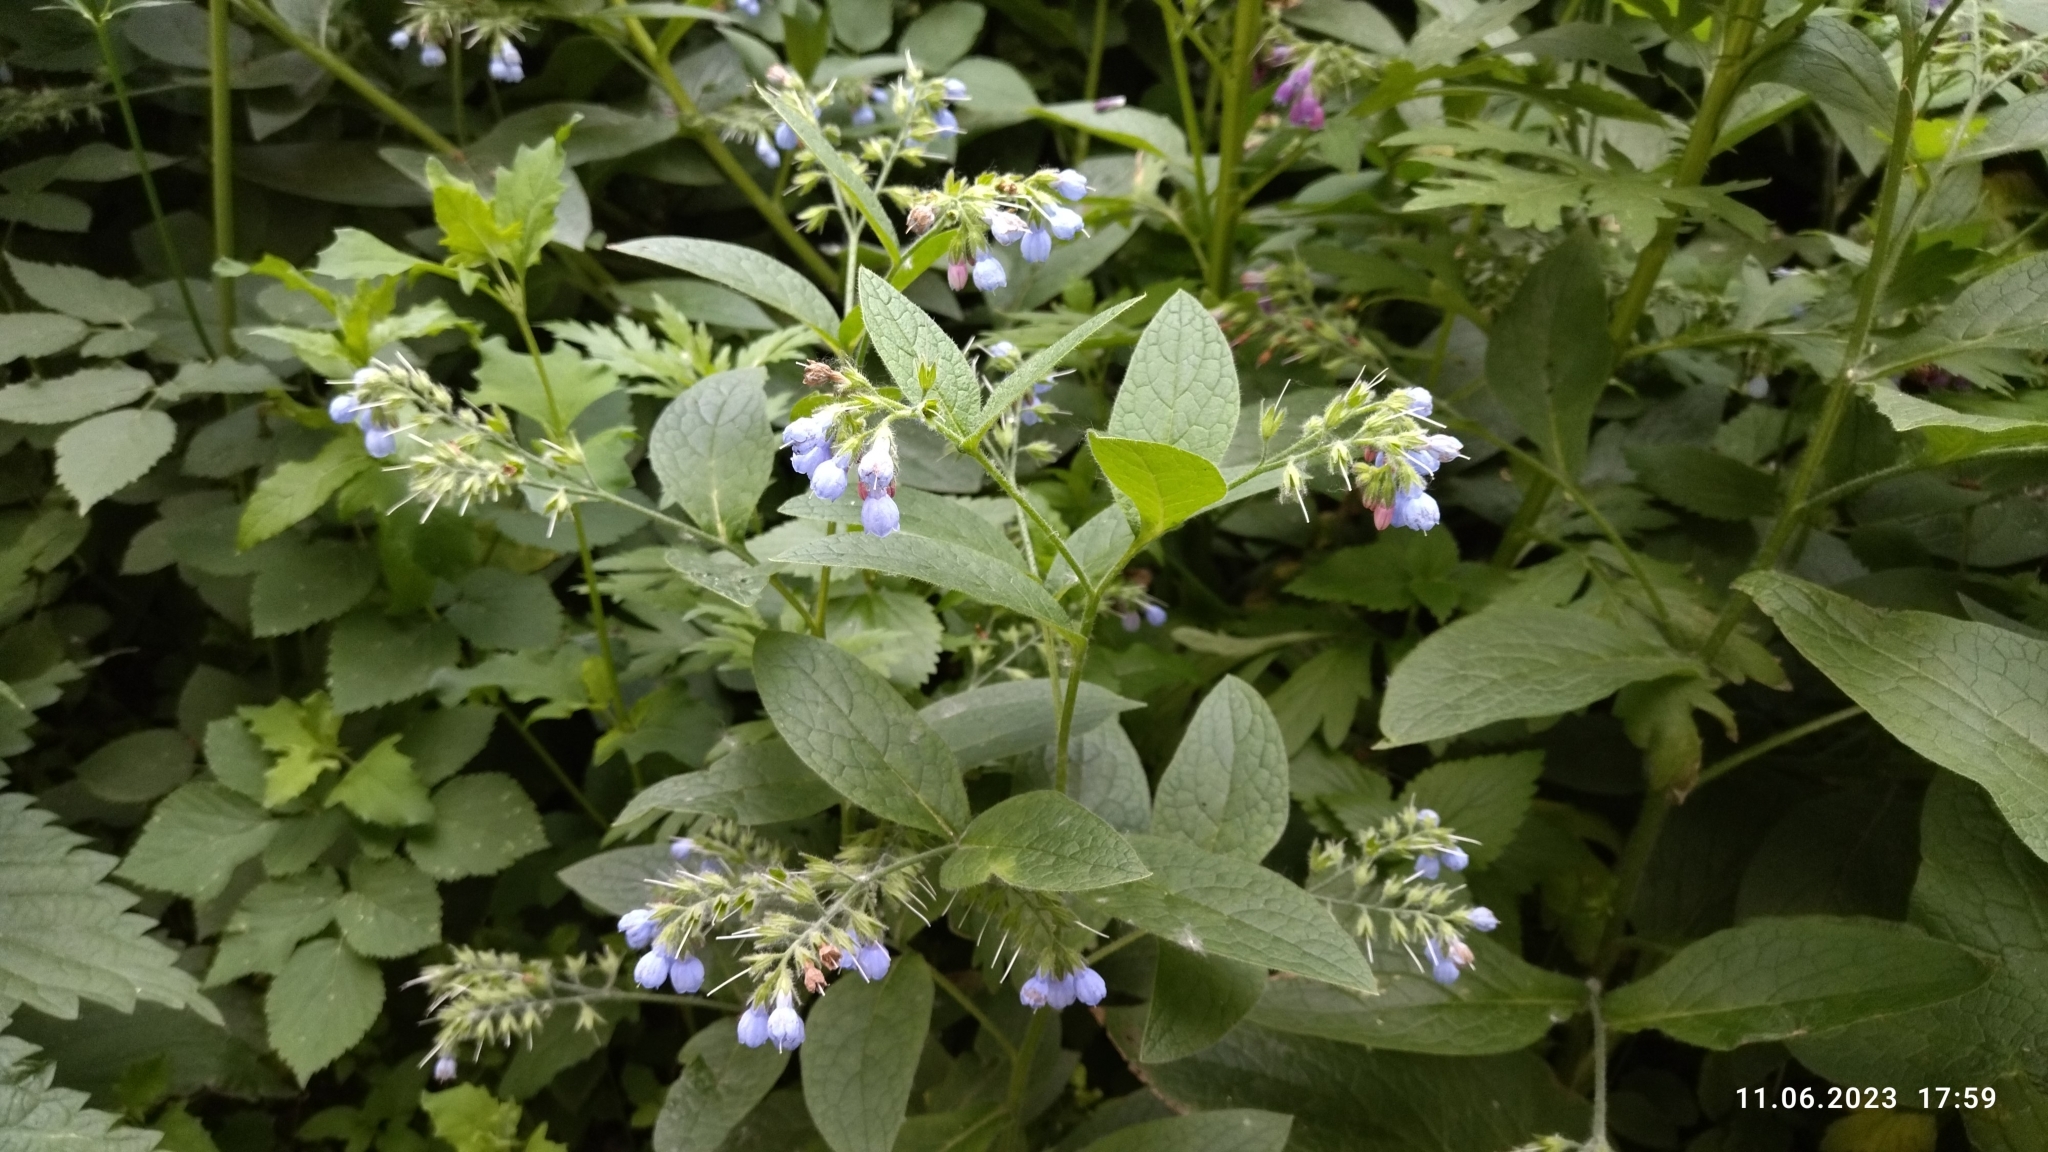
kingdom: Plantae
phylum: Tracheophyta
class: Magnoliopsida
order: Boraginales
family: Boraginaceae
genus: Symphytum
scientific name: Symphytum caucasicum
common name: Caucasian comfrey
